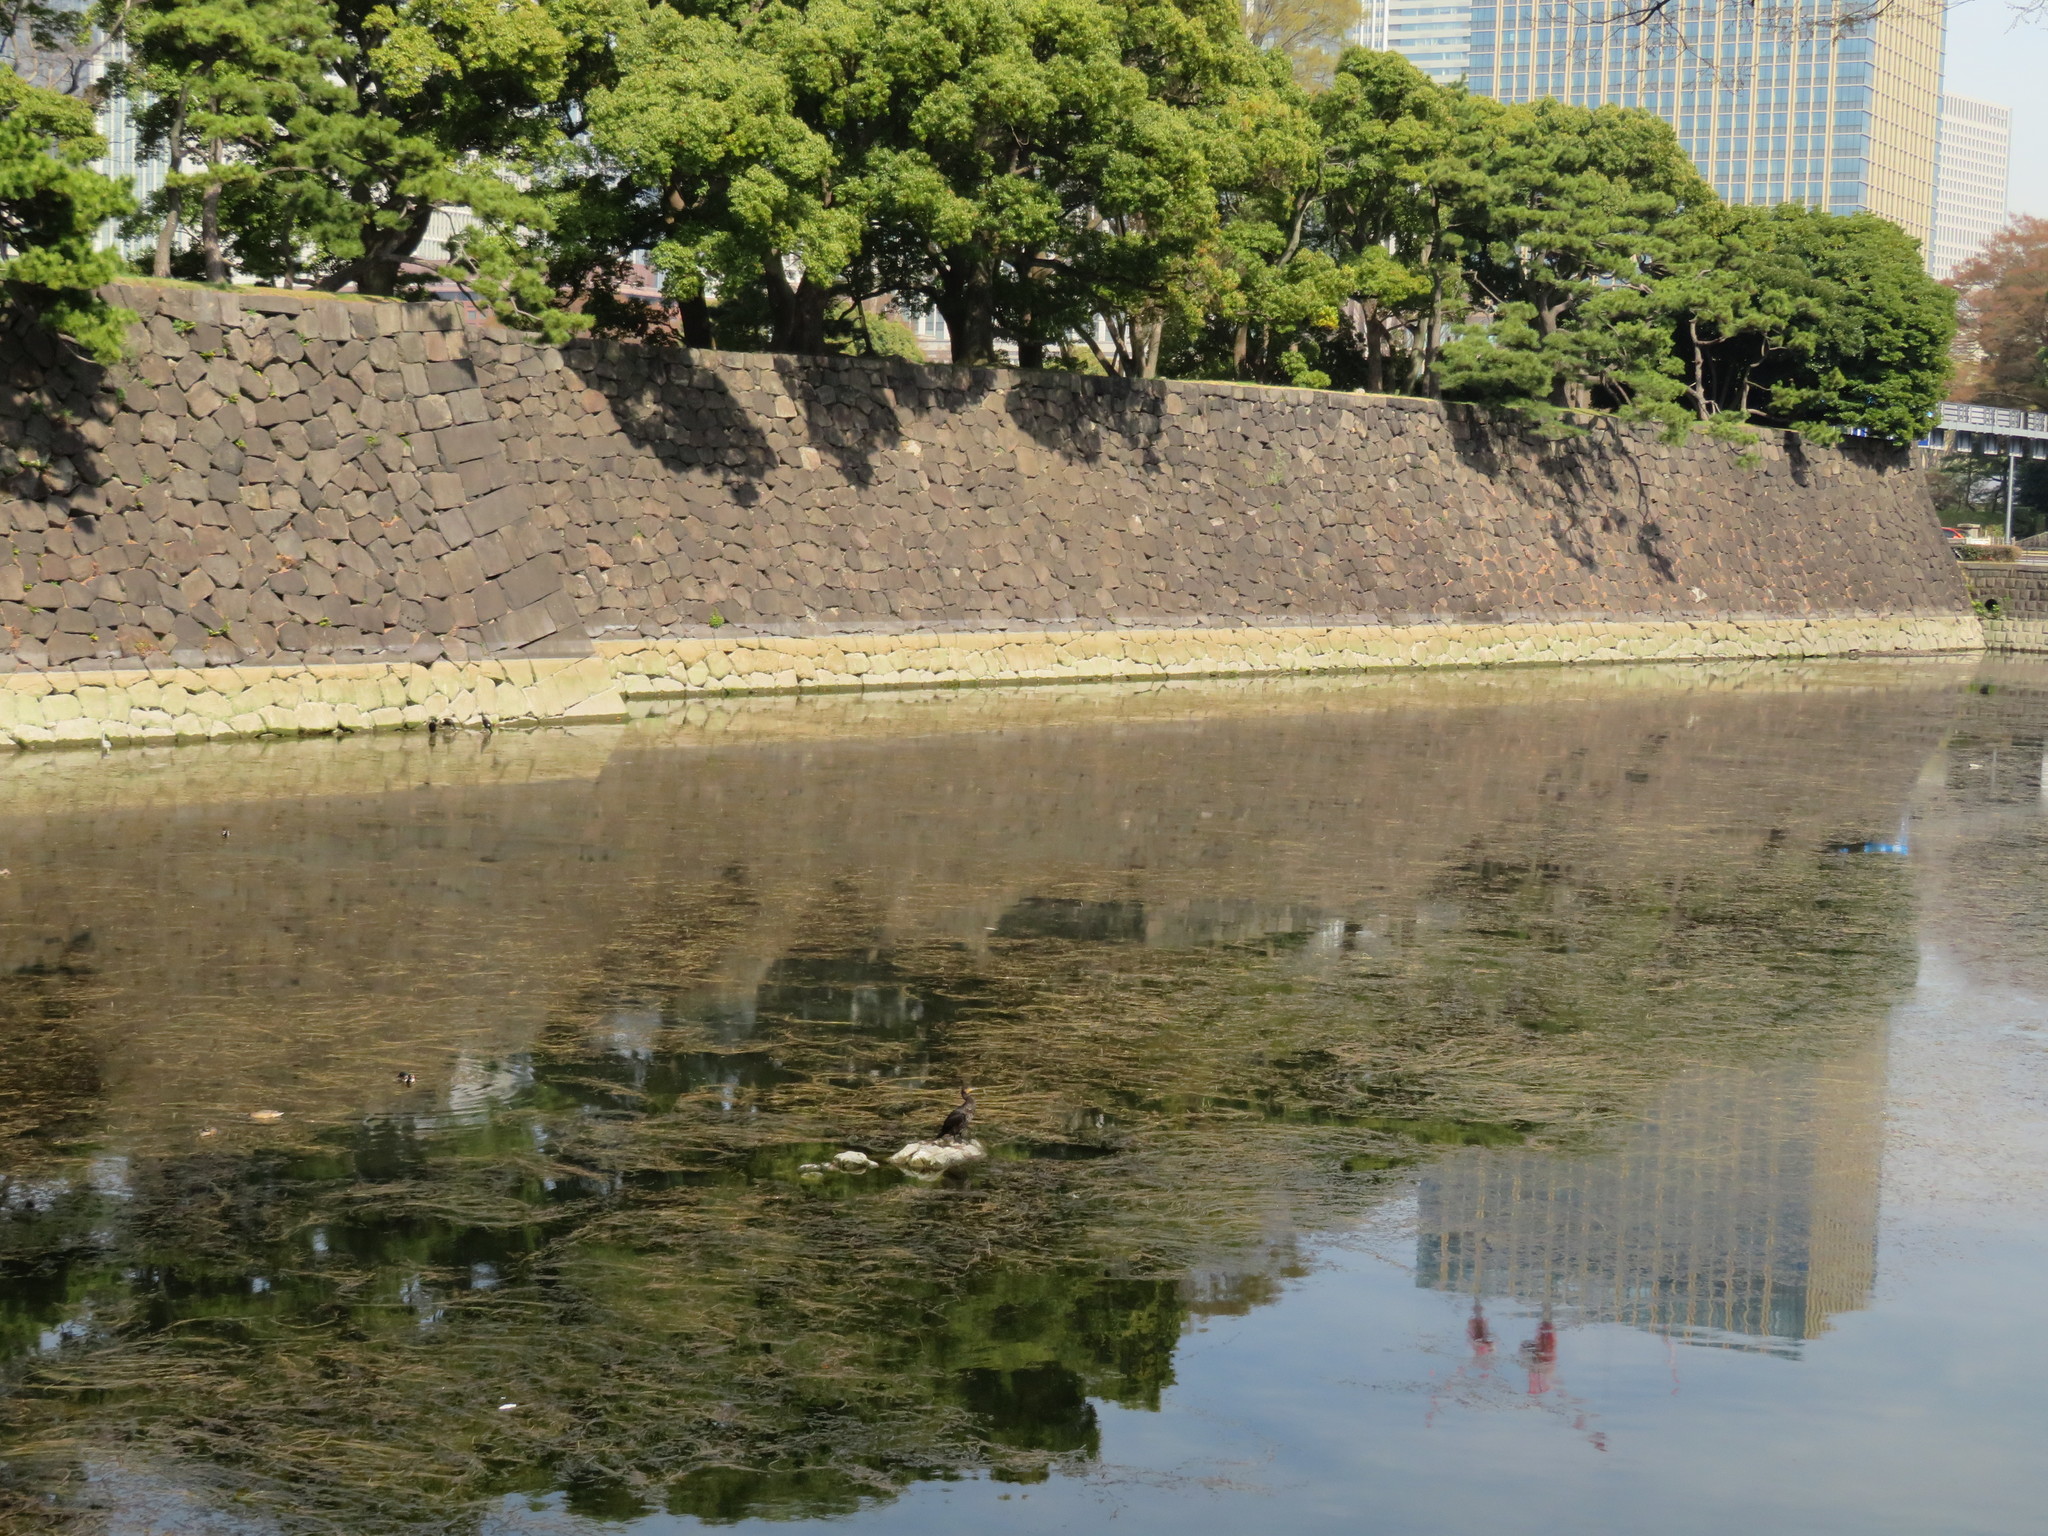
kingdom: Animalia
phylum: Chordata
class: Aves
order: Suliformes
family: Phalacrocoracidae
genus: Phalacrocorax
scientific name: Phalacrocorax carbo
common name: Great cormorant
